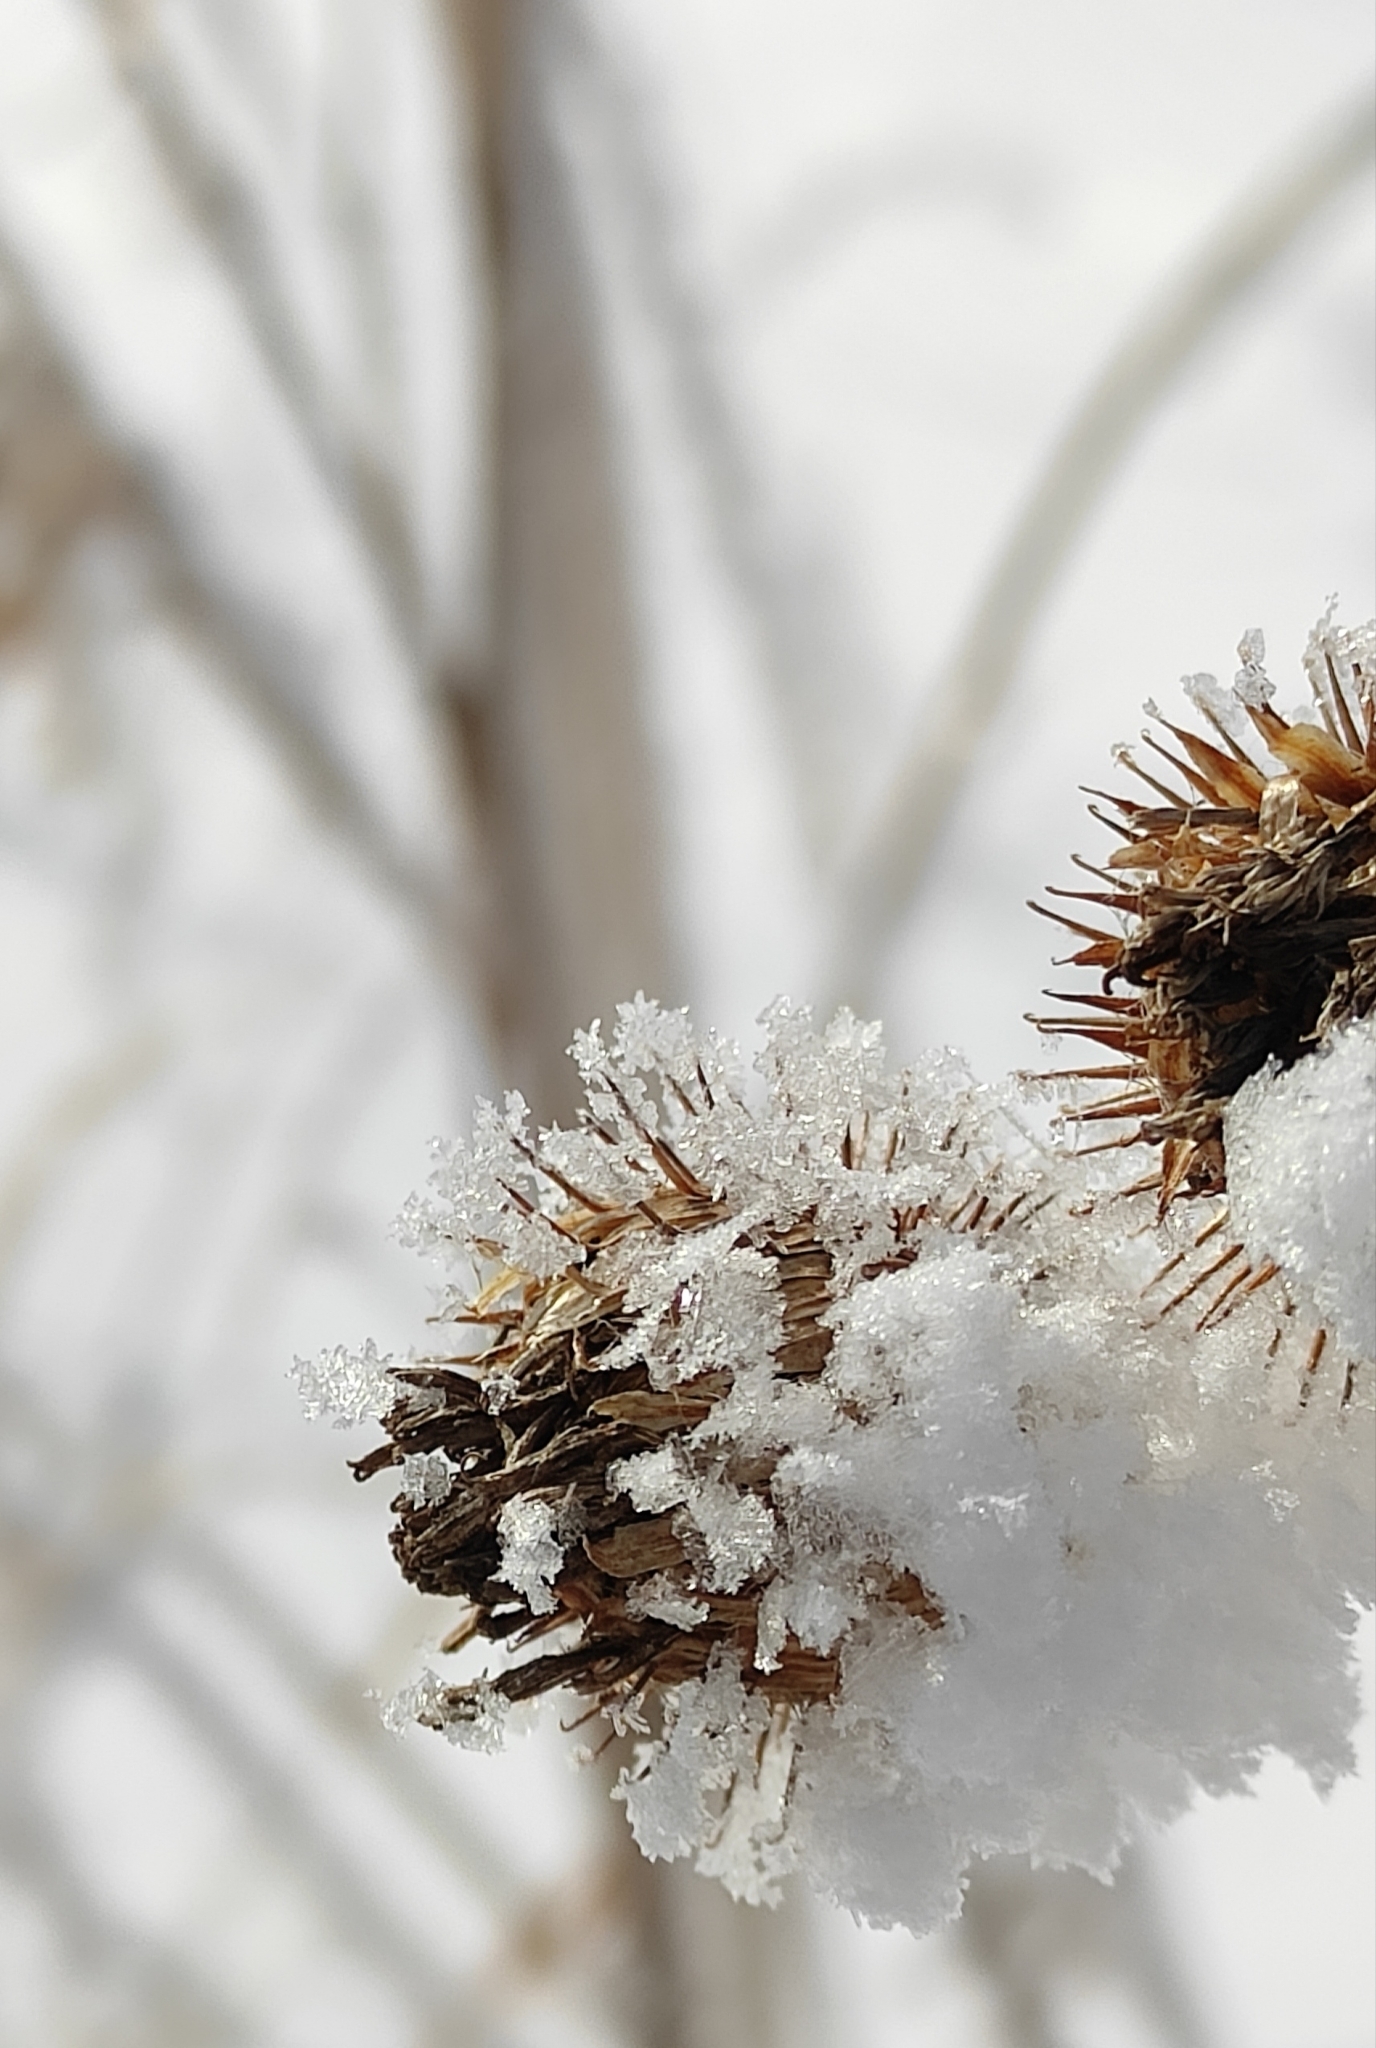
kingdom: Plantae
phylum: Tracheophyta
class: Magnoliopsida
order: Asterales
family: Asteraceae
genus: Arctium
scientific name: Arctium tomentosum
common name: Woolly burdock
